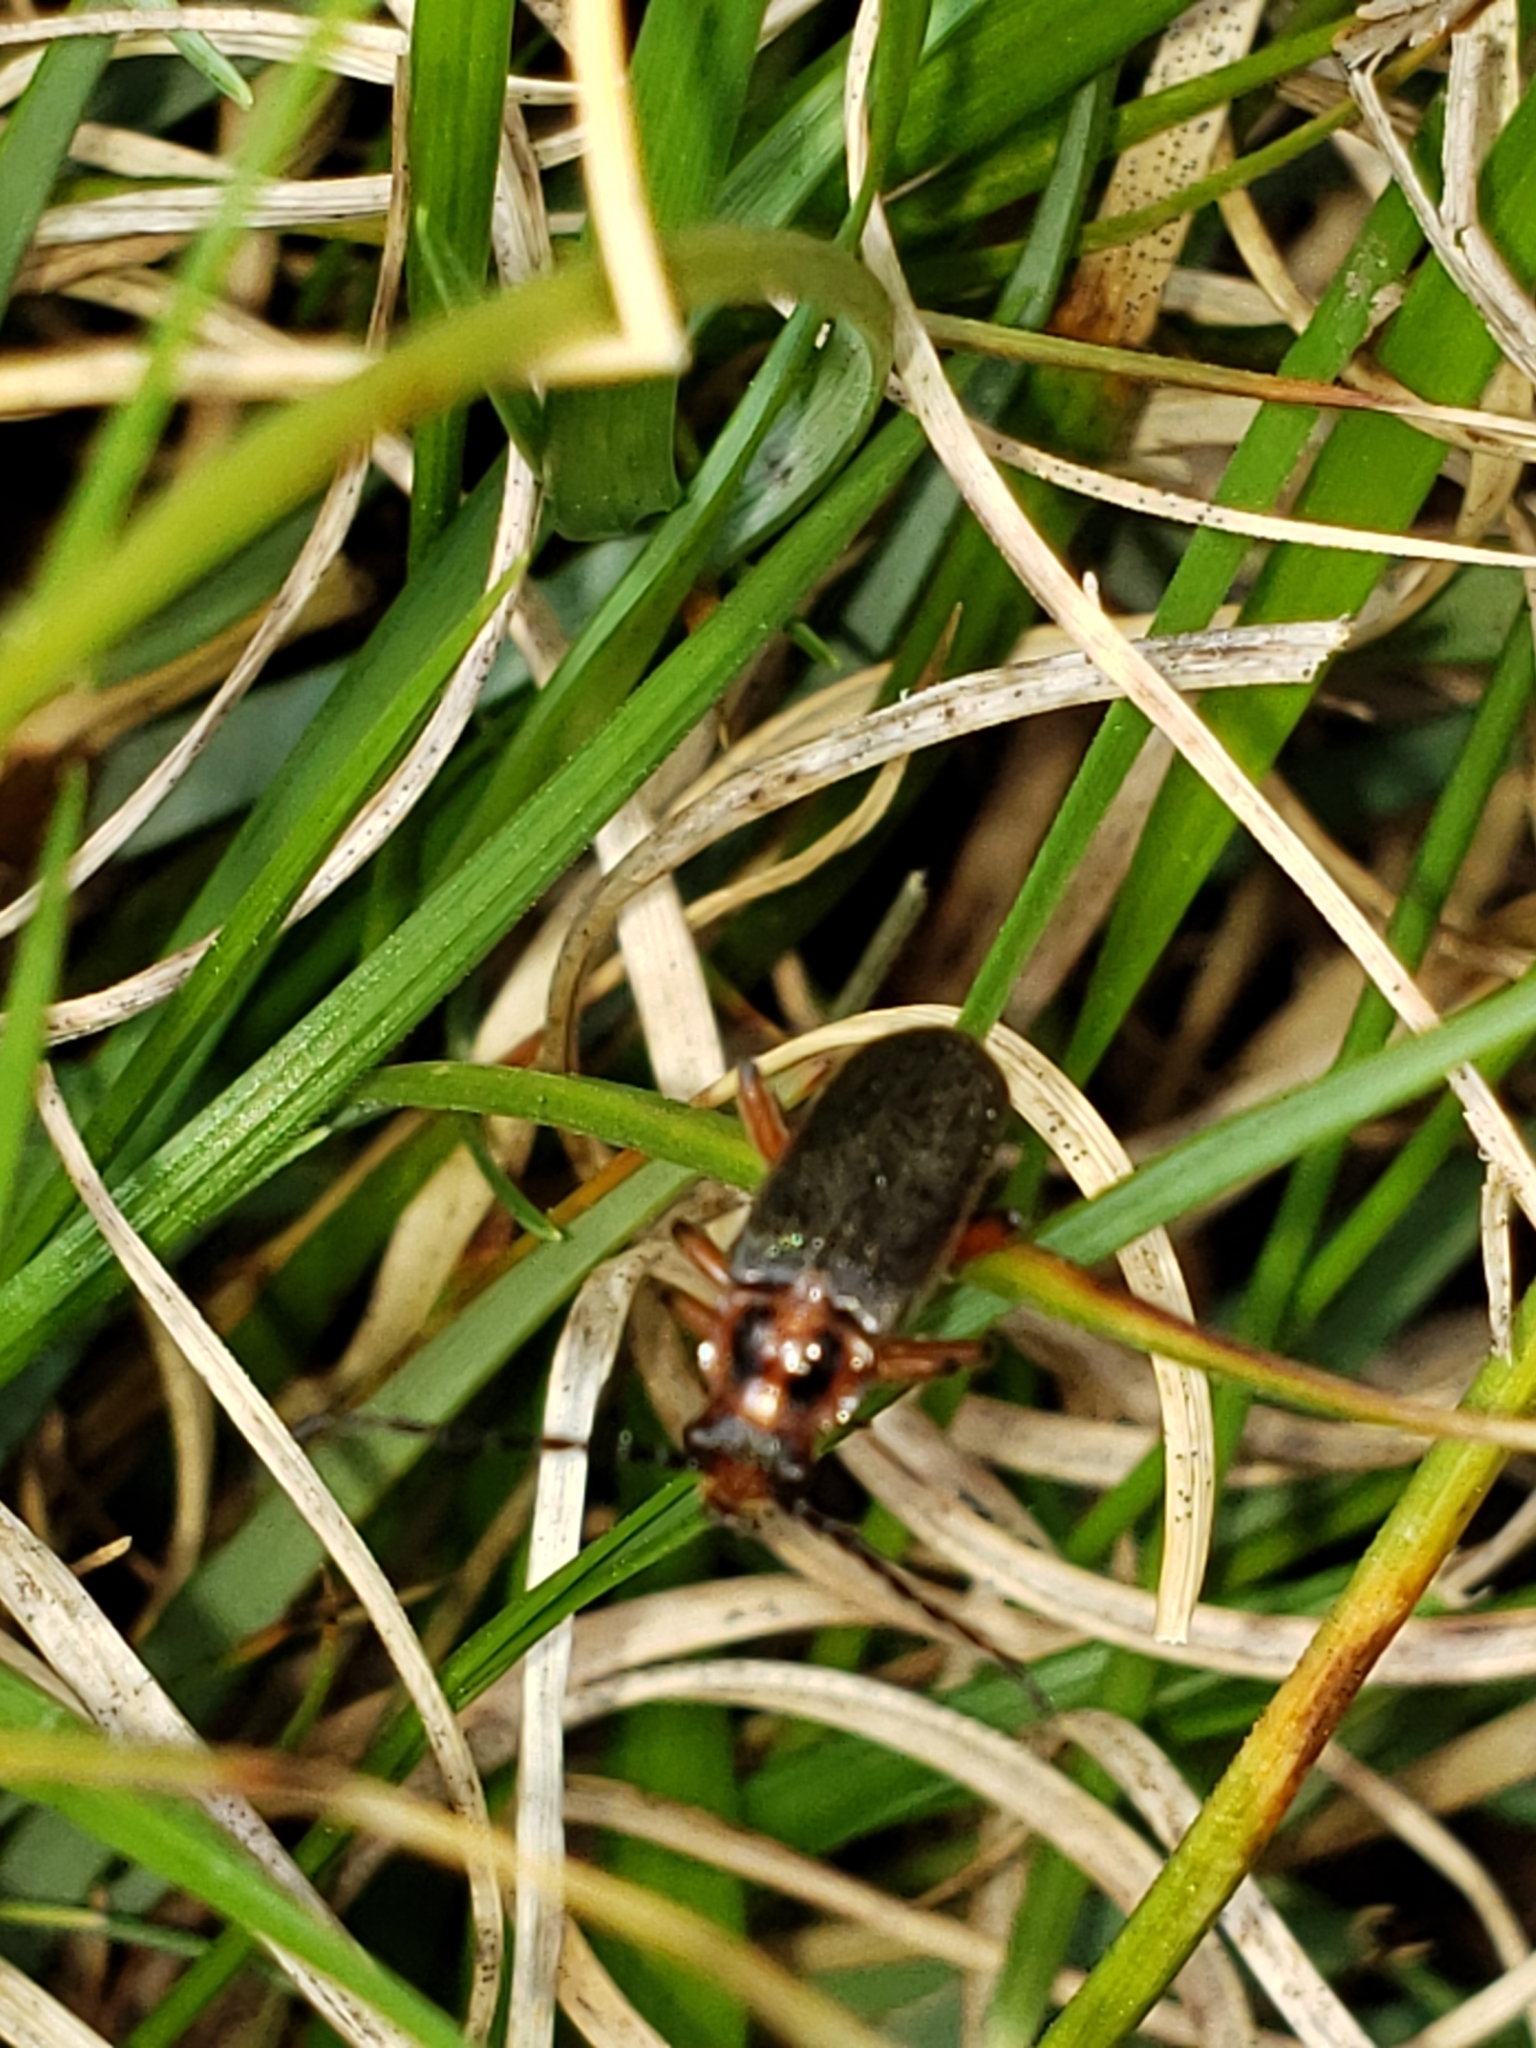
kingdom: Animalia
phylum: Arthropoda
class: Insecta
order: Coleoptera
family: Cantharidae
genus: Atalantycha
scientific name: Atalantycha bilineata
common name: Two-lined leatherwing
